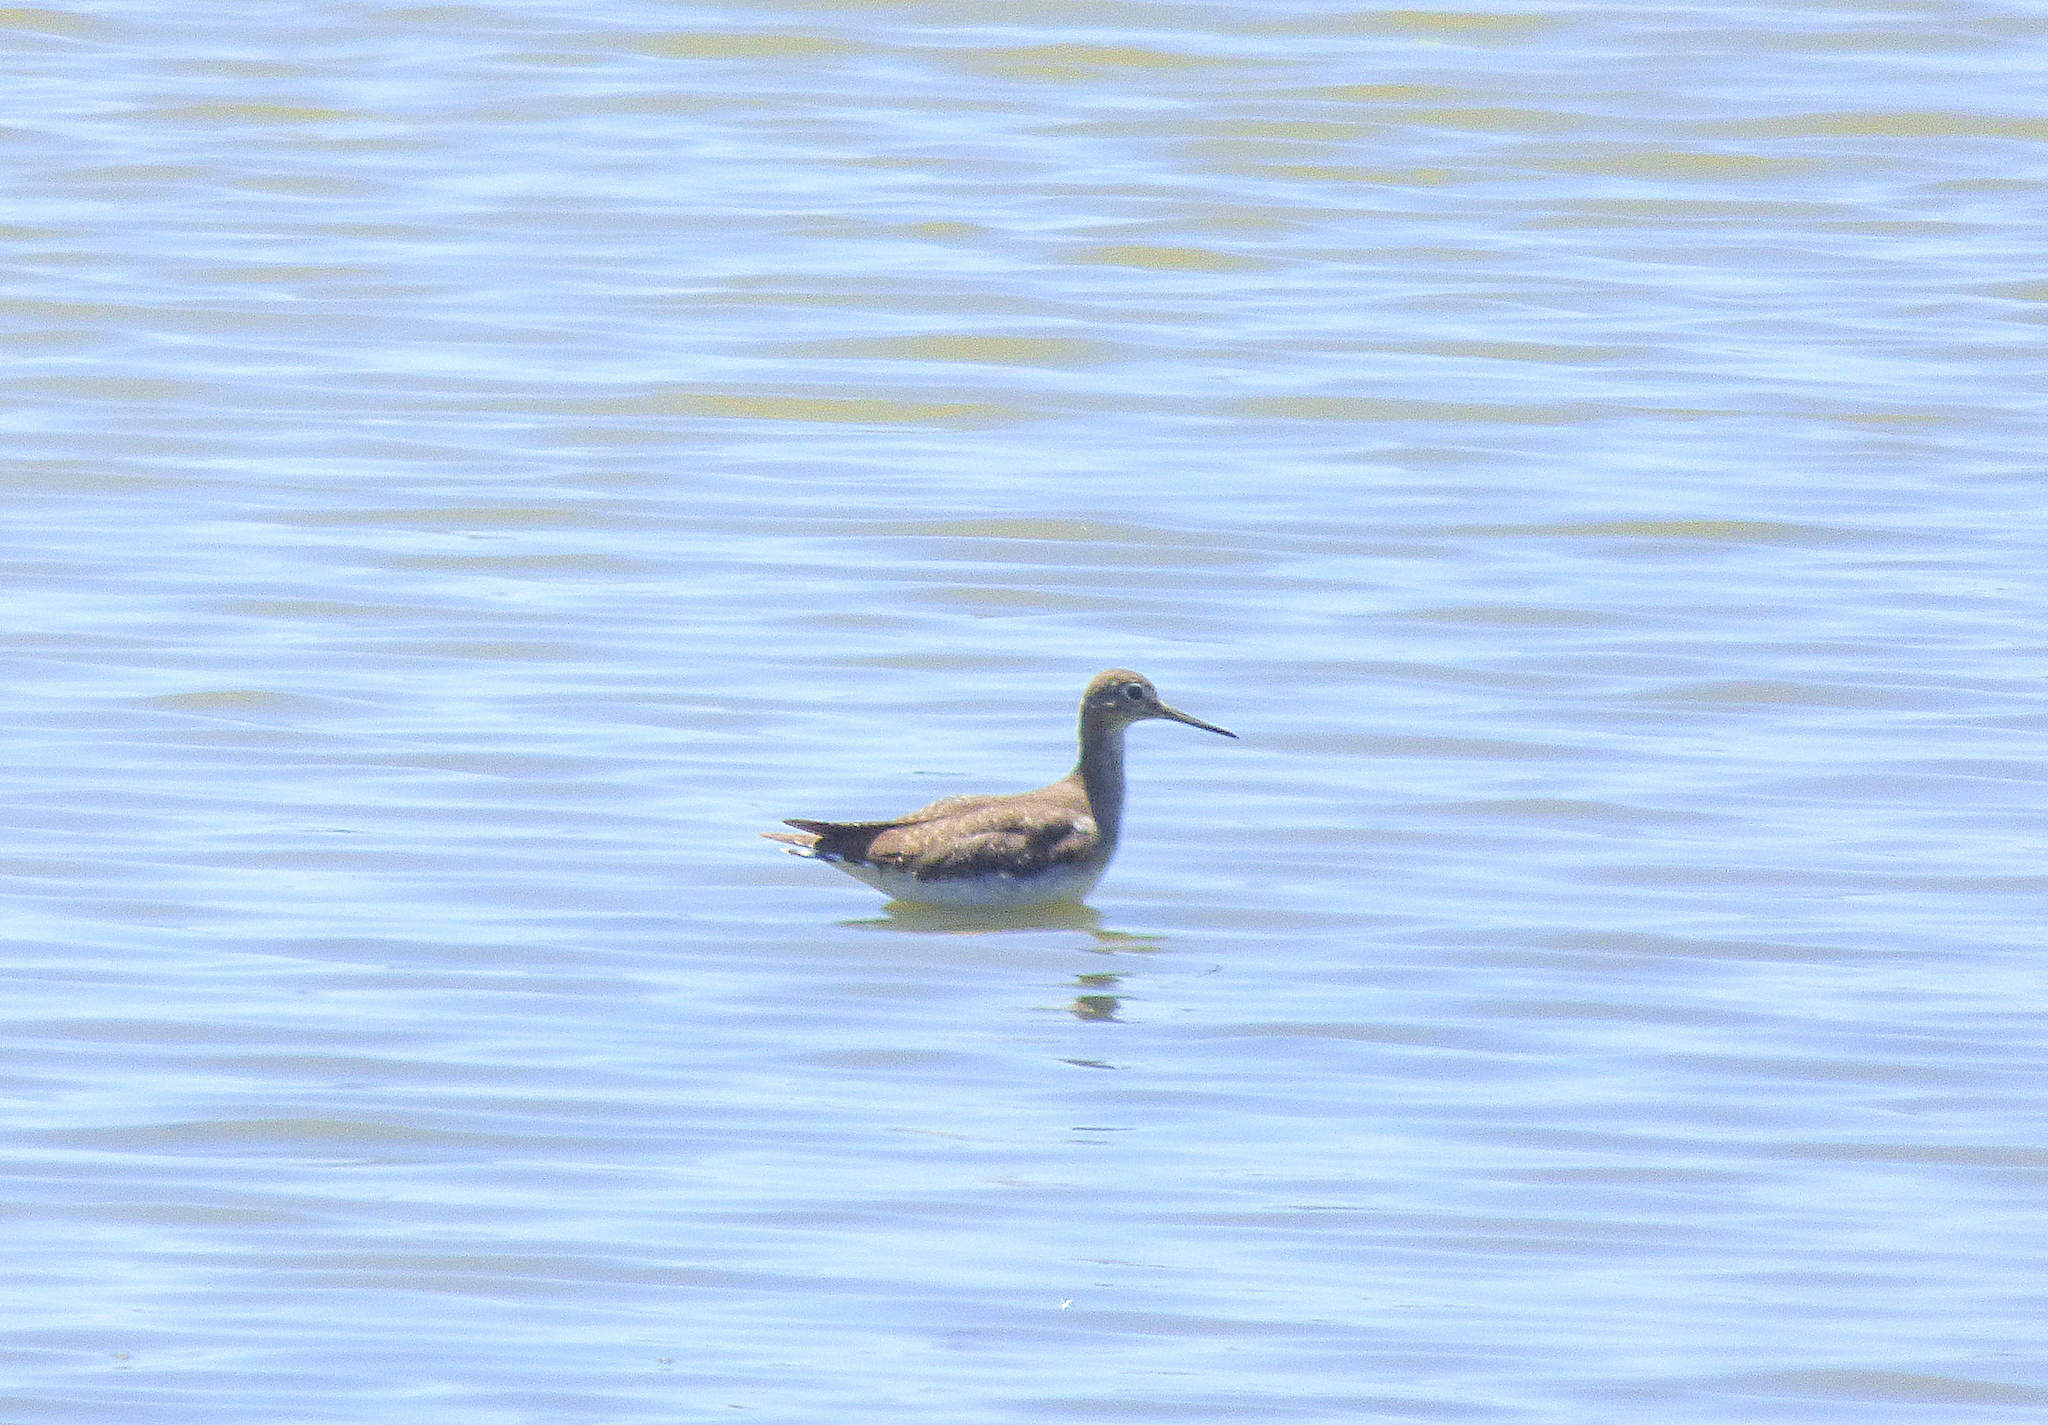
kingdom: Animalia
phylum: Chordata
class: Aves
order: Charadriiformes
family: Scolopacidae
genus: Tringa
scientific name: Tringa solitaria
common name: Solitary sandpiper
